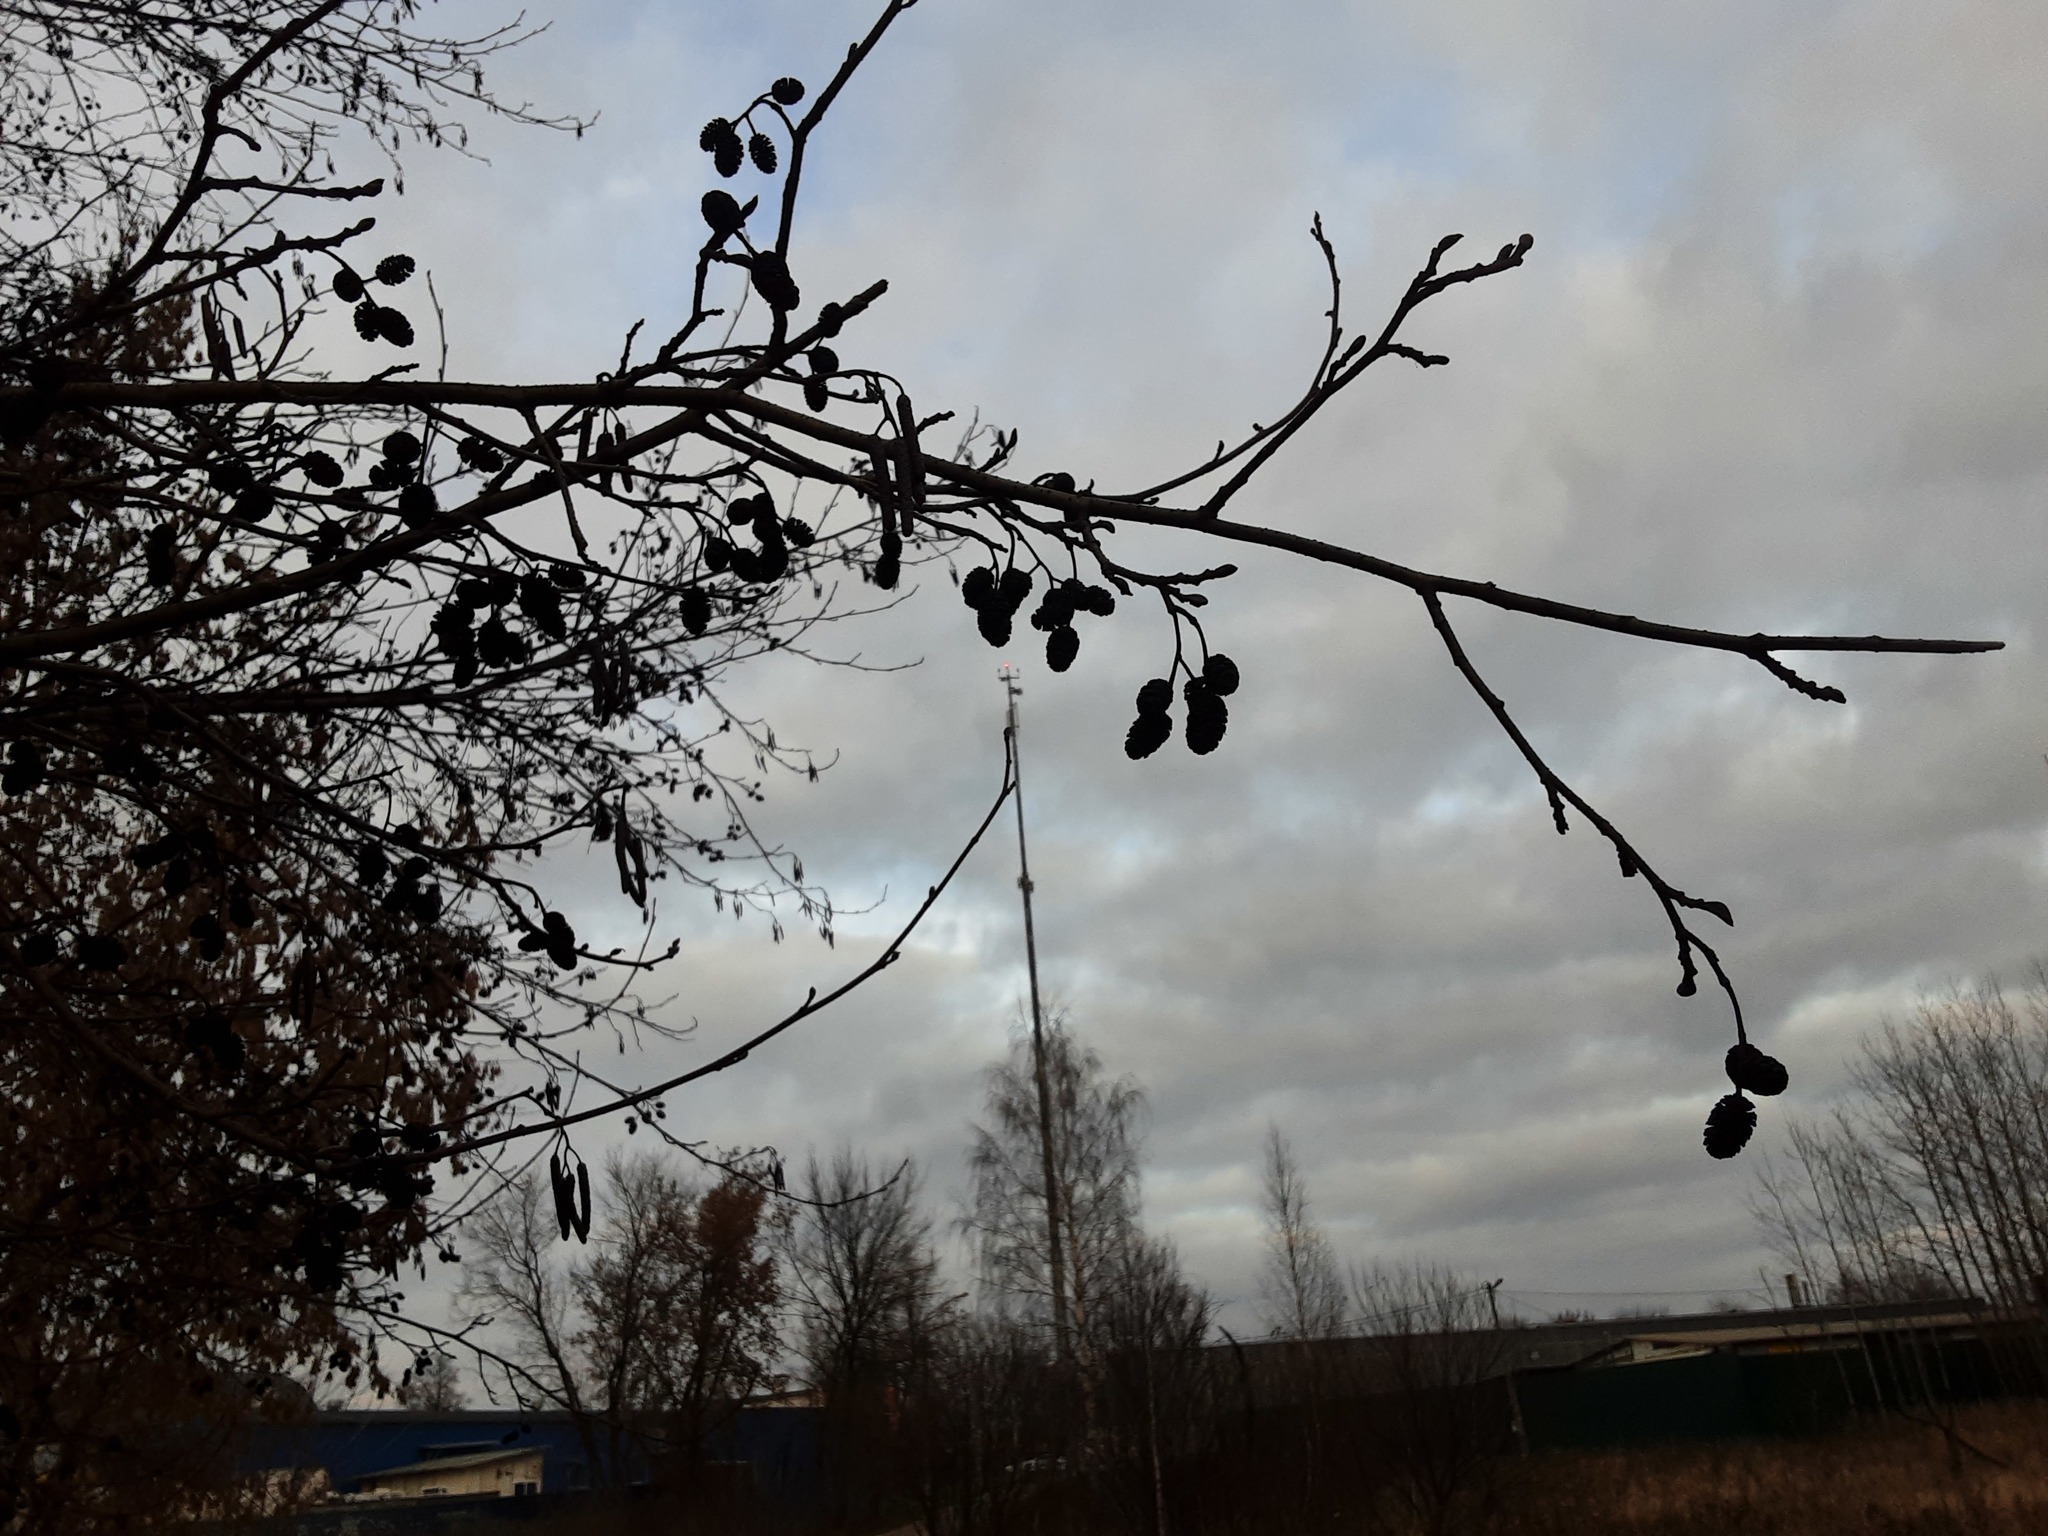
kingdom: Plantae
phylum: Tracheophyta
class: Magnoliopsida
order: Fagales
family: Betulaceae
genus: Alnus
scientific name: Alnus glutinosa
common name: Black alder
